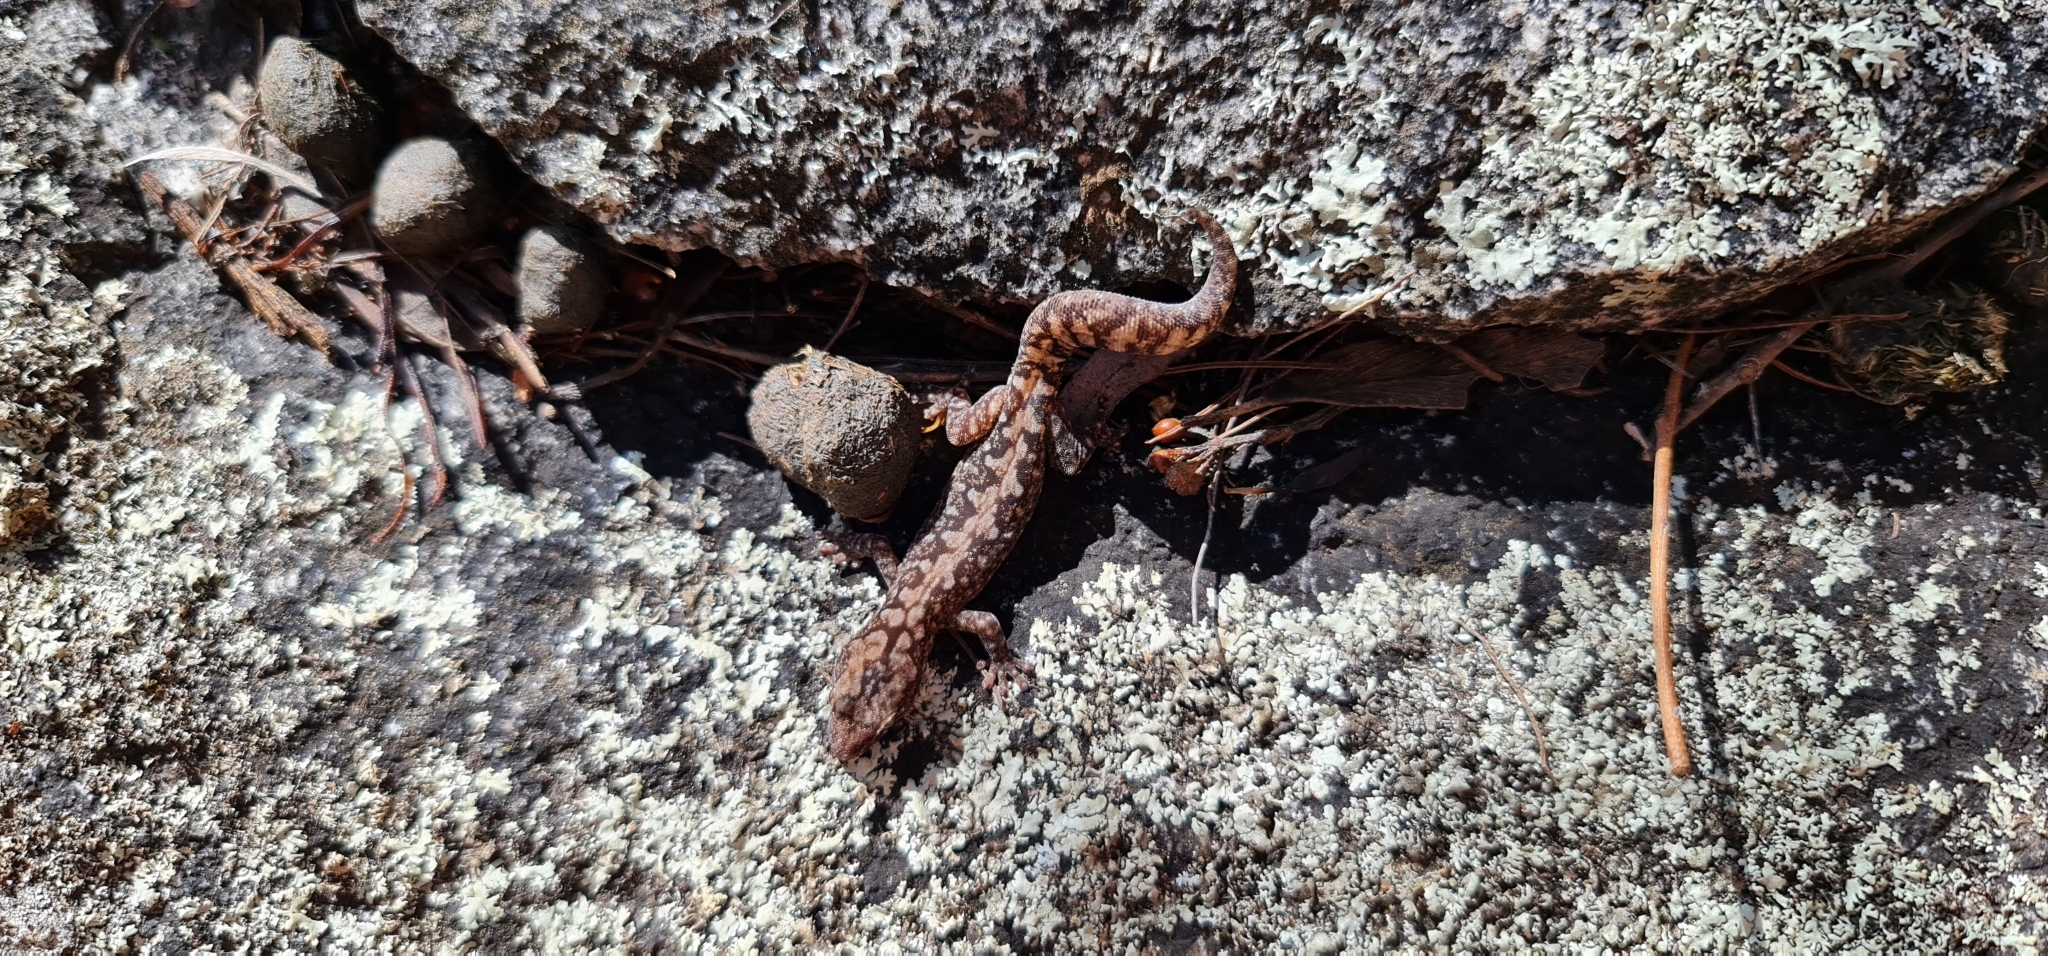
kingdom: Animalia
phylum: Chordata
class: Squamata
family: Diplodactylidae
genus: Amalosia
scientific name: Amalosia lesueurii
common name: Lesueur's gecko
